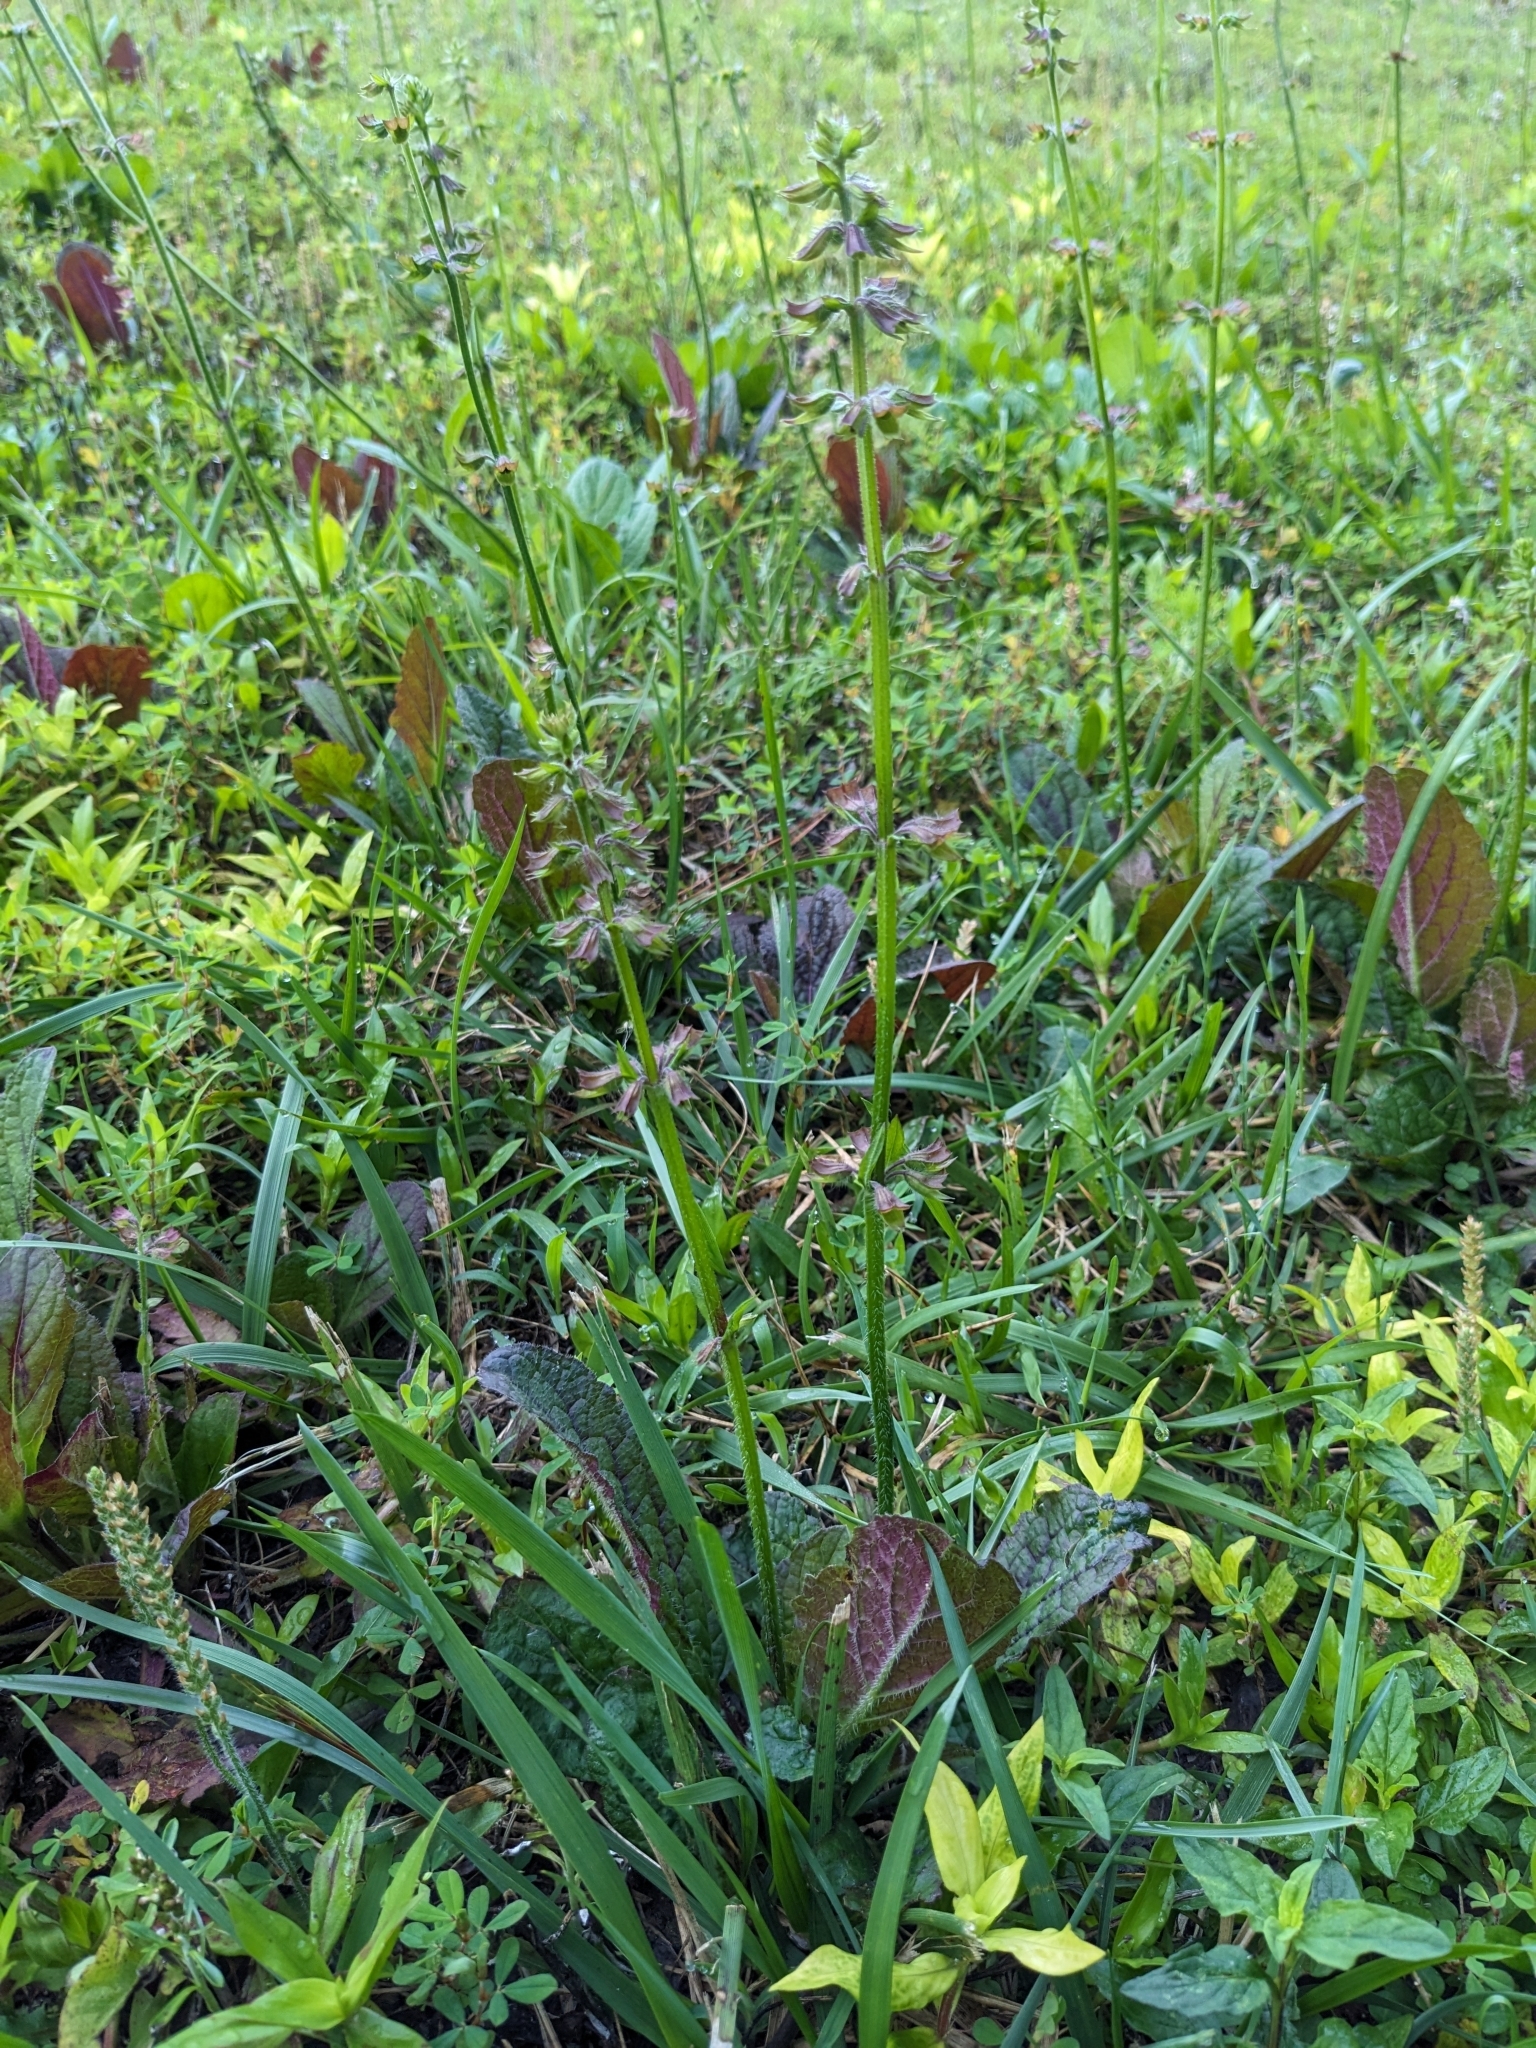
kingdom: Plantae
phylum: Tracheophyta
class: Magnoliopsida
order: Lamiales
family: Lamiaceae
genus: Salvia
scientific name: Salvia lyrata
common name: Cancerweed
